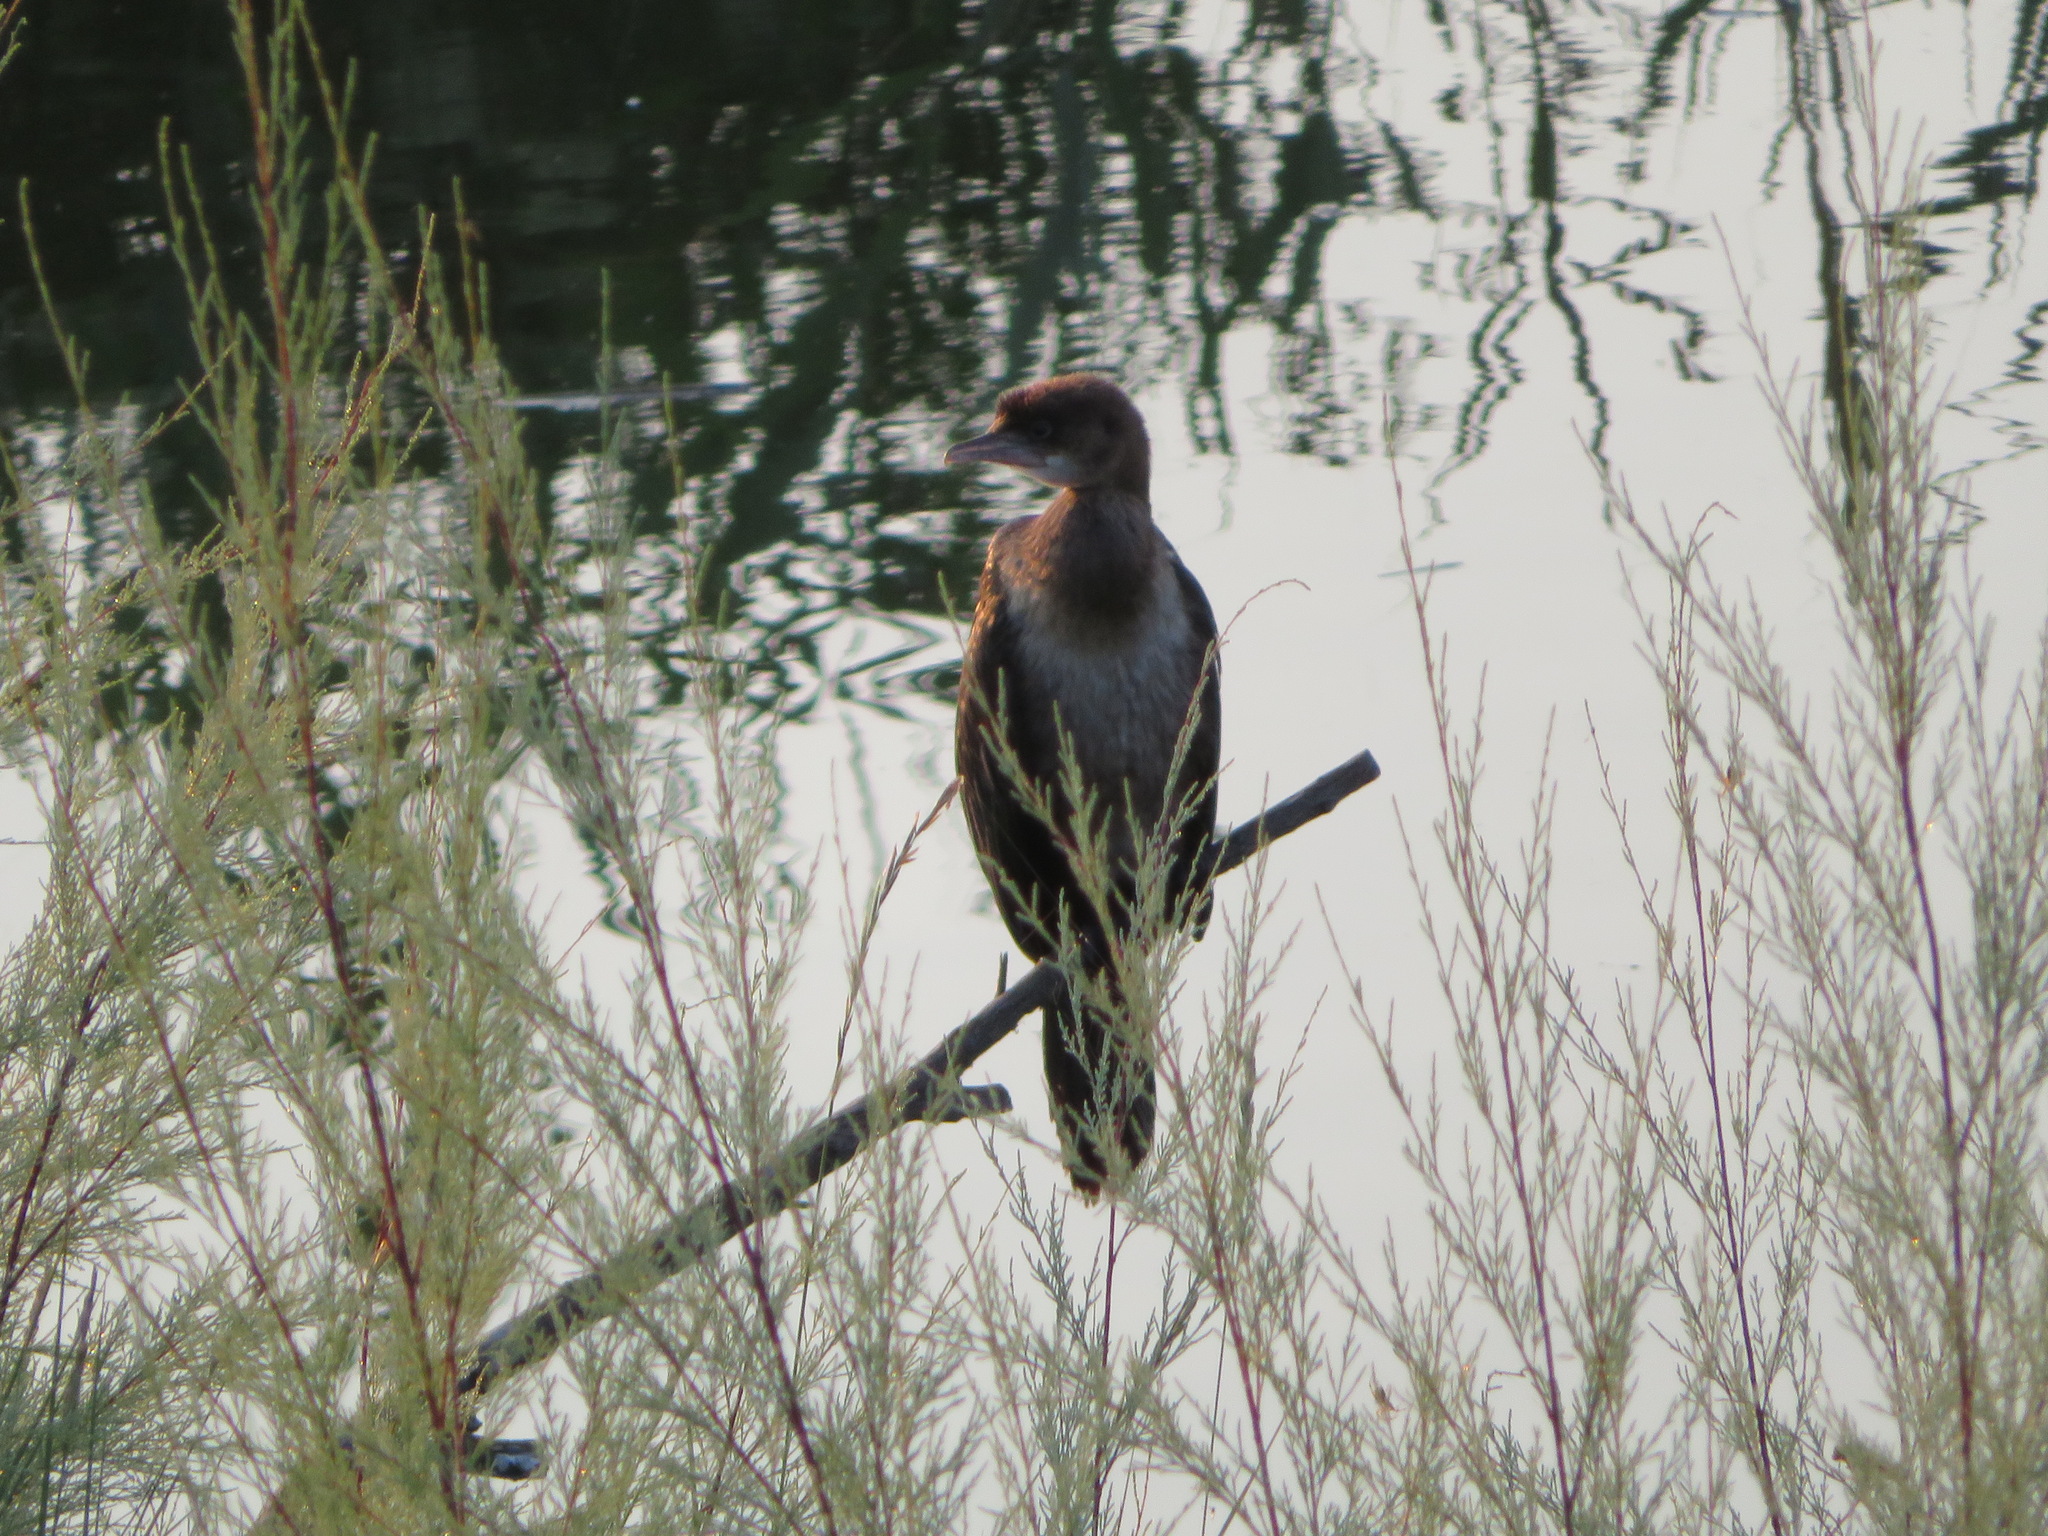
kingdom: Animalia
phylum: Chordata
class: Aves
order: Suliformes
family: Phalacrocoracidae
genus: Microcarbo
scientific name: Microcarbo pygmaeus
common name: Pygmy cormorant
